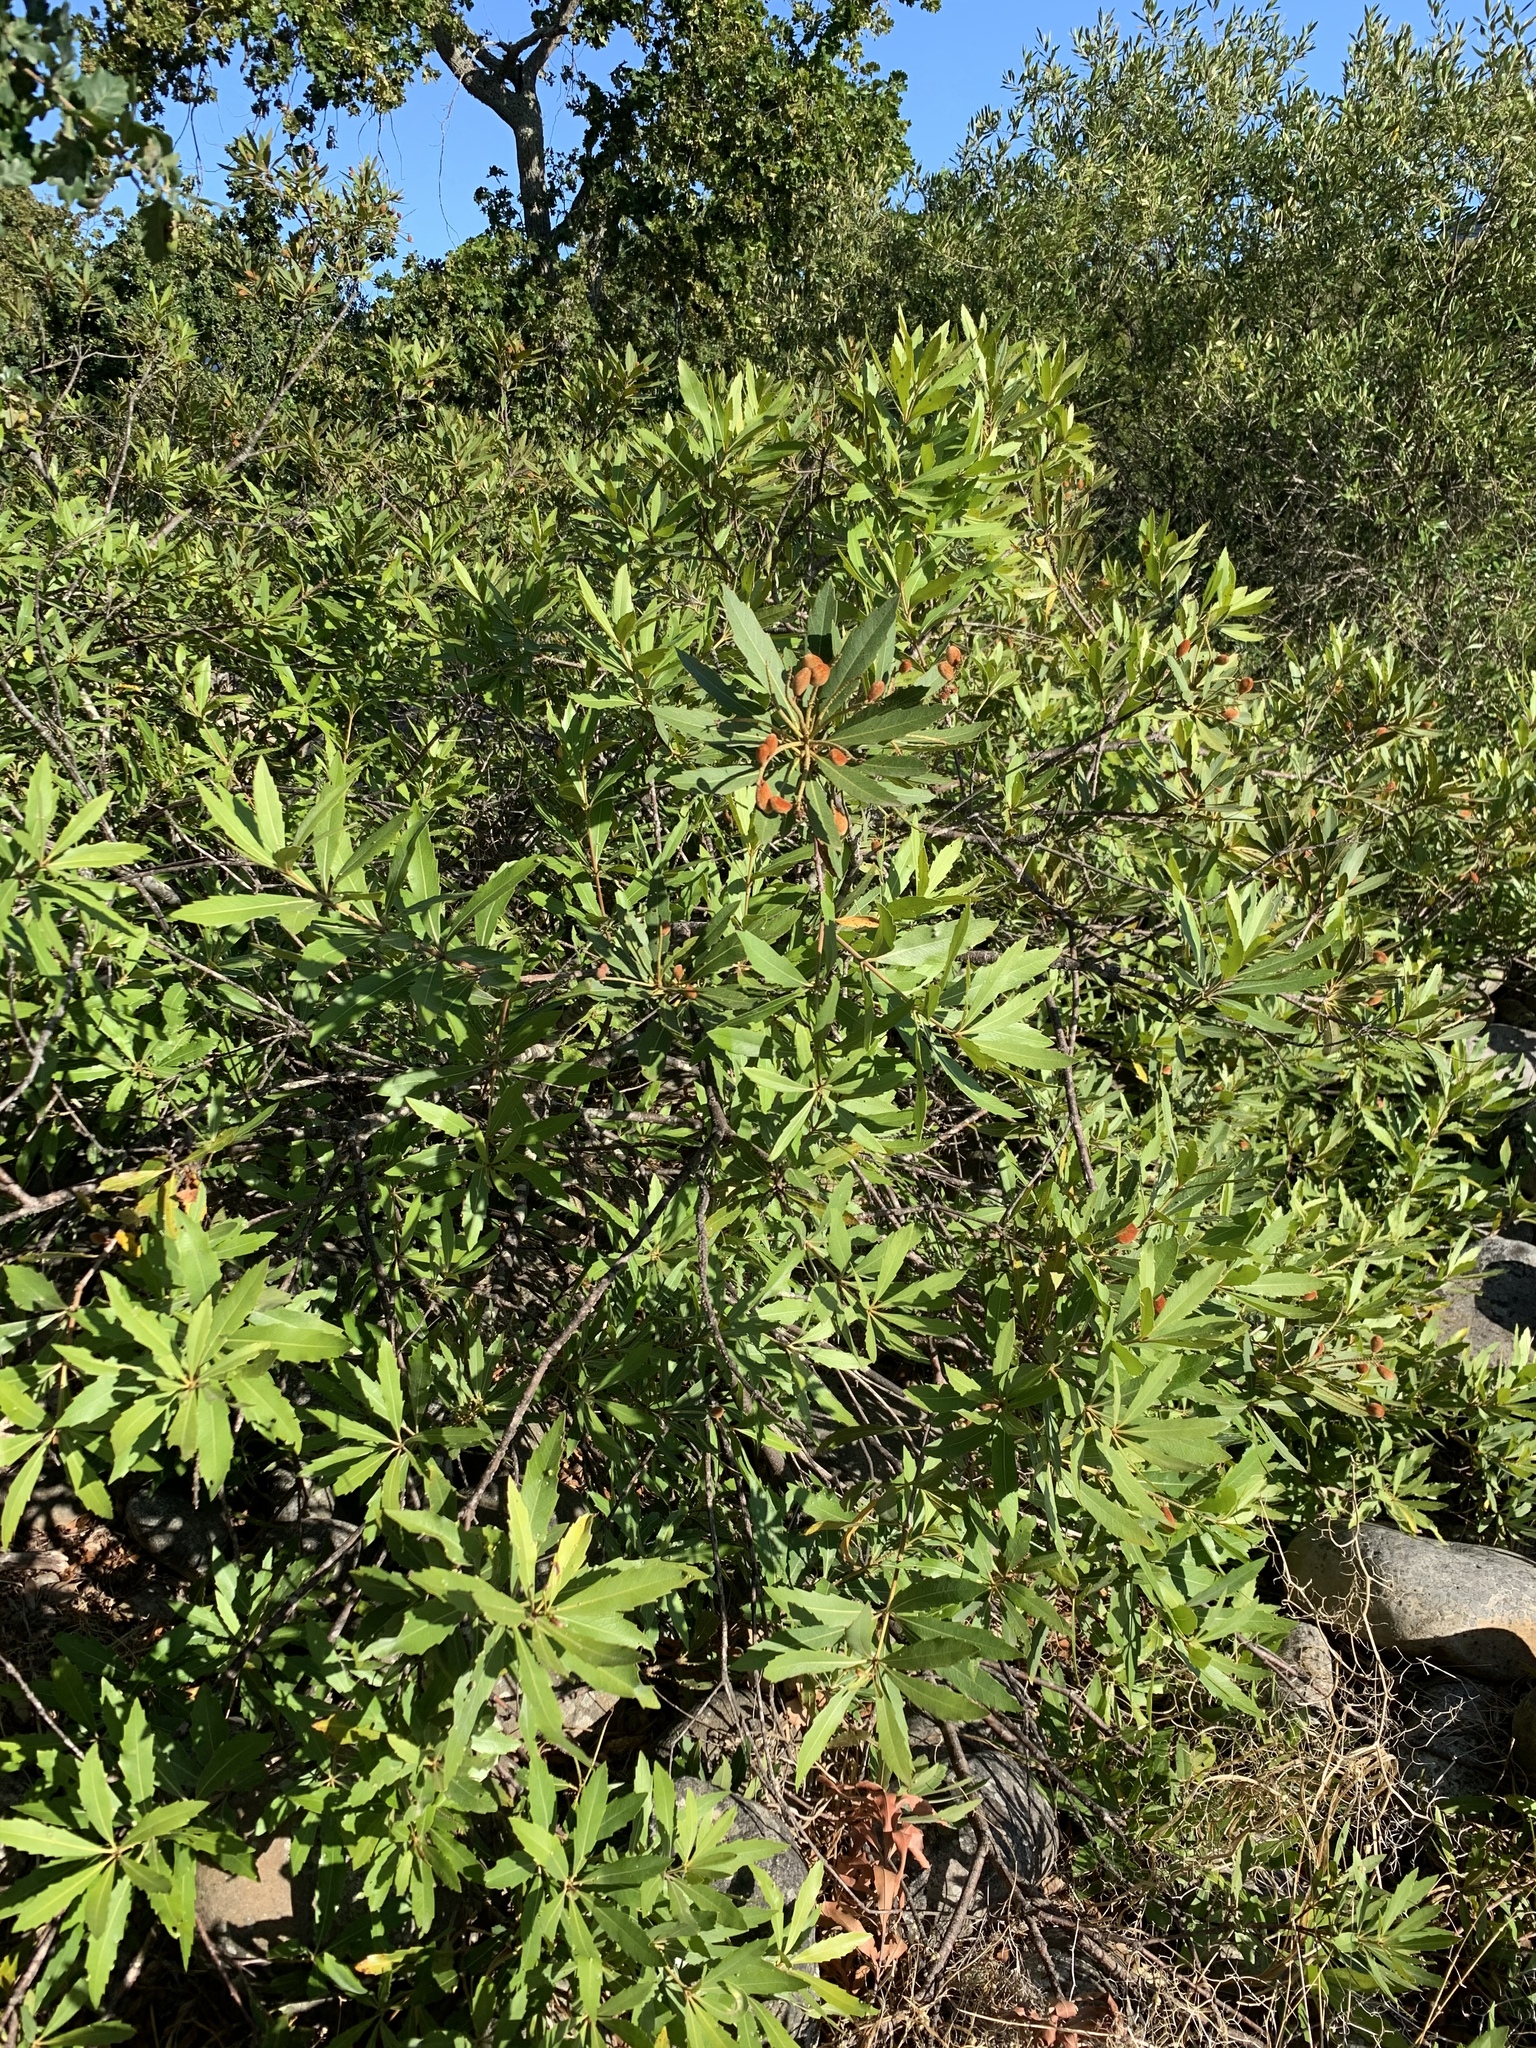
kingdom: Plantae
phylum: Tracheophyta
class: Magnoliopsida
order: Proteales
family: Proteaceae
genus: Brabejum
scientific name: Brabejum stellatifolium
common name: Wild almond
